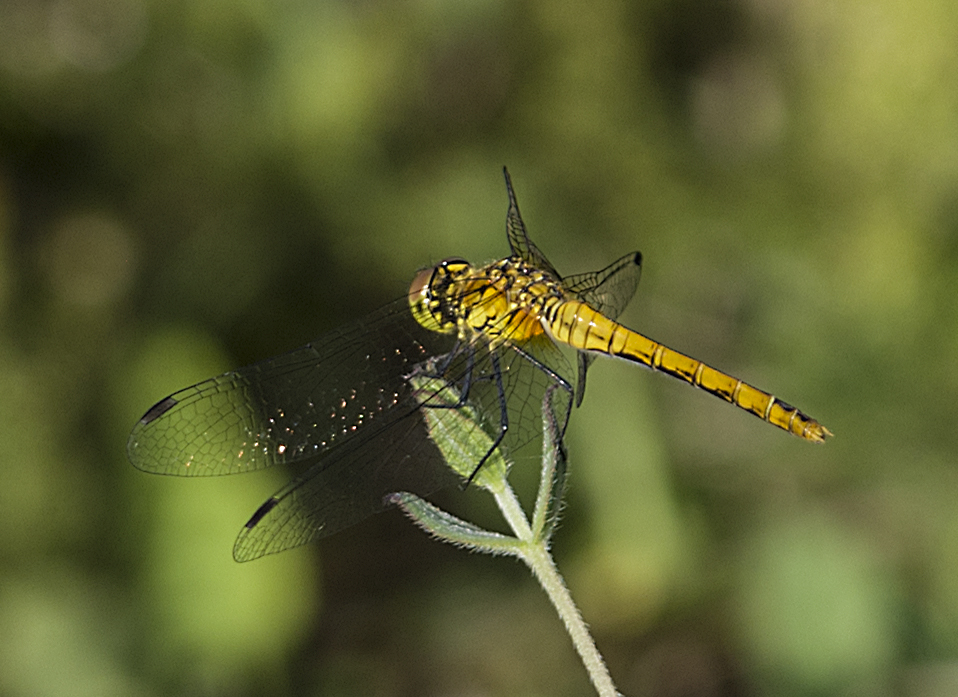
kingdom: Animalia
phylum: Arthropoda
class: Insecta
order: Odonata
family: Libellulidae
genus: Sympetrum
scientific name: Sympetrum sanguineum
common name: Ruddy darter
